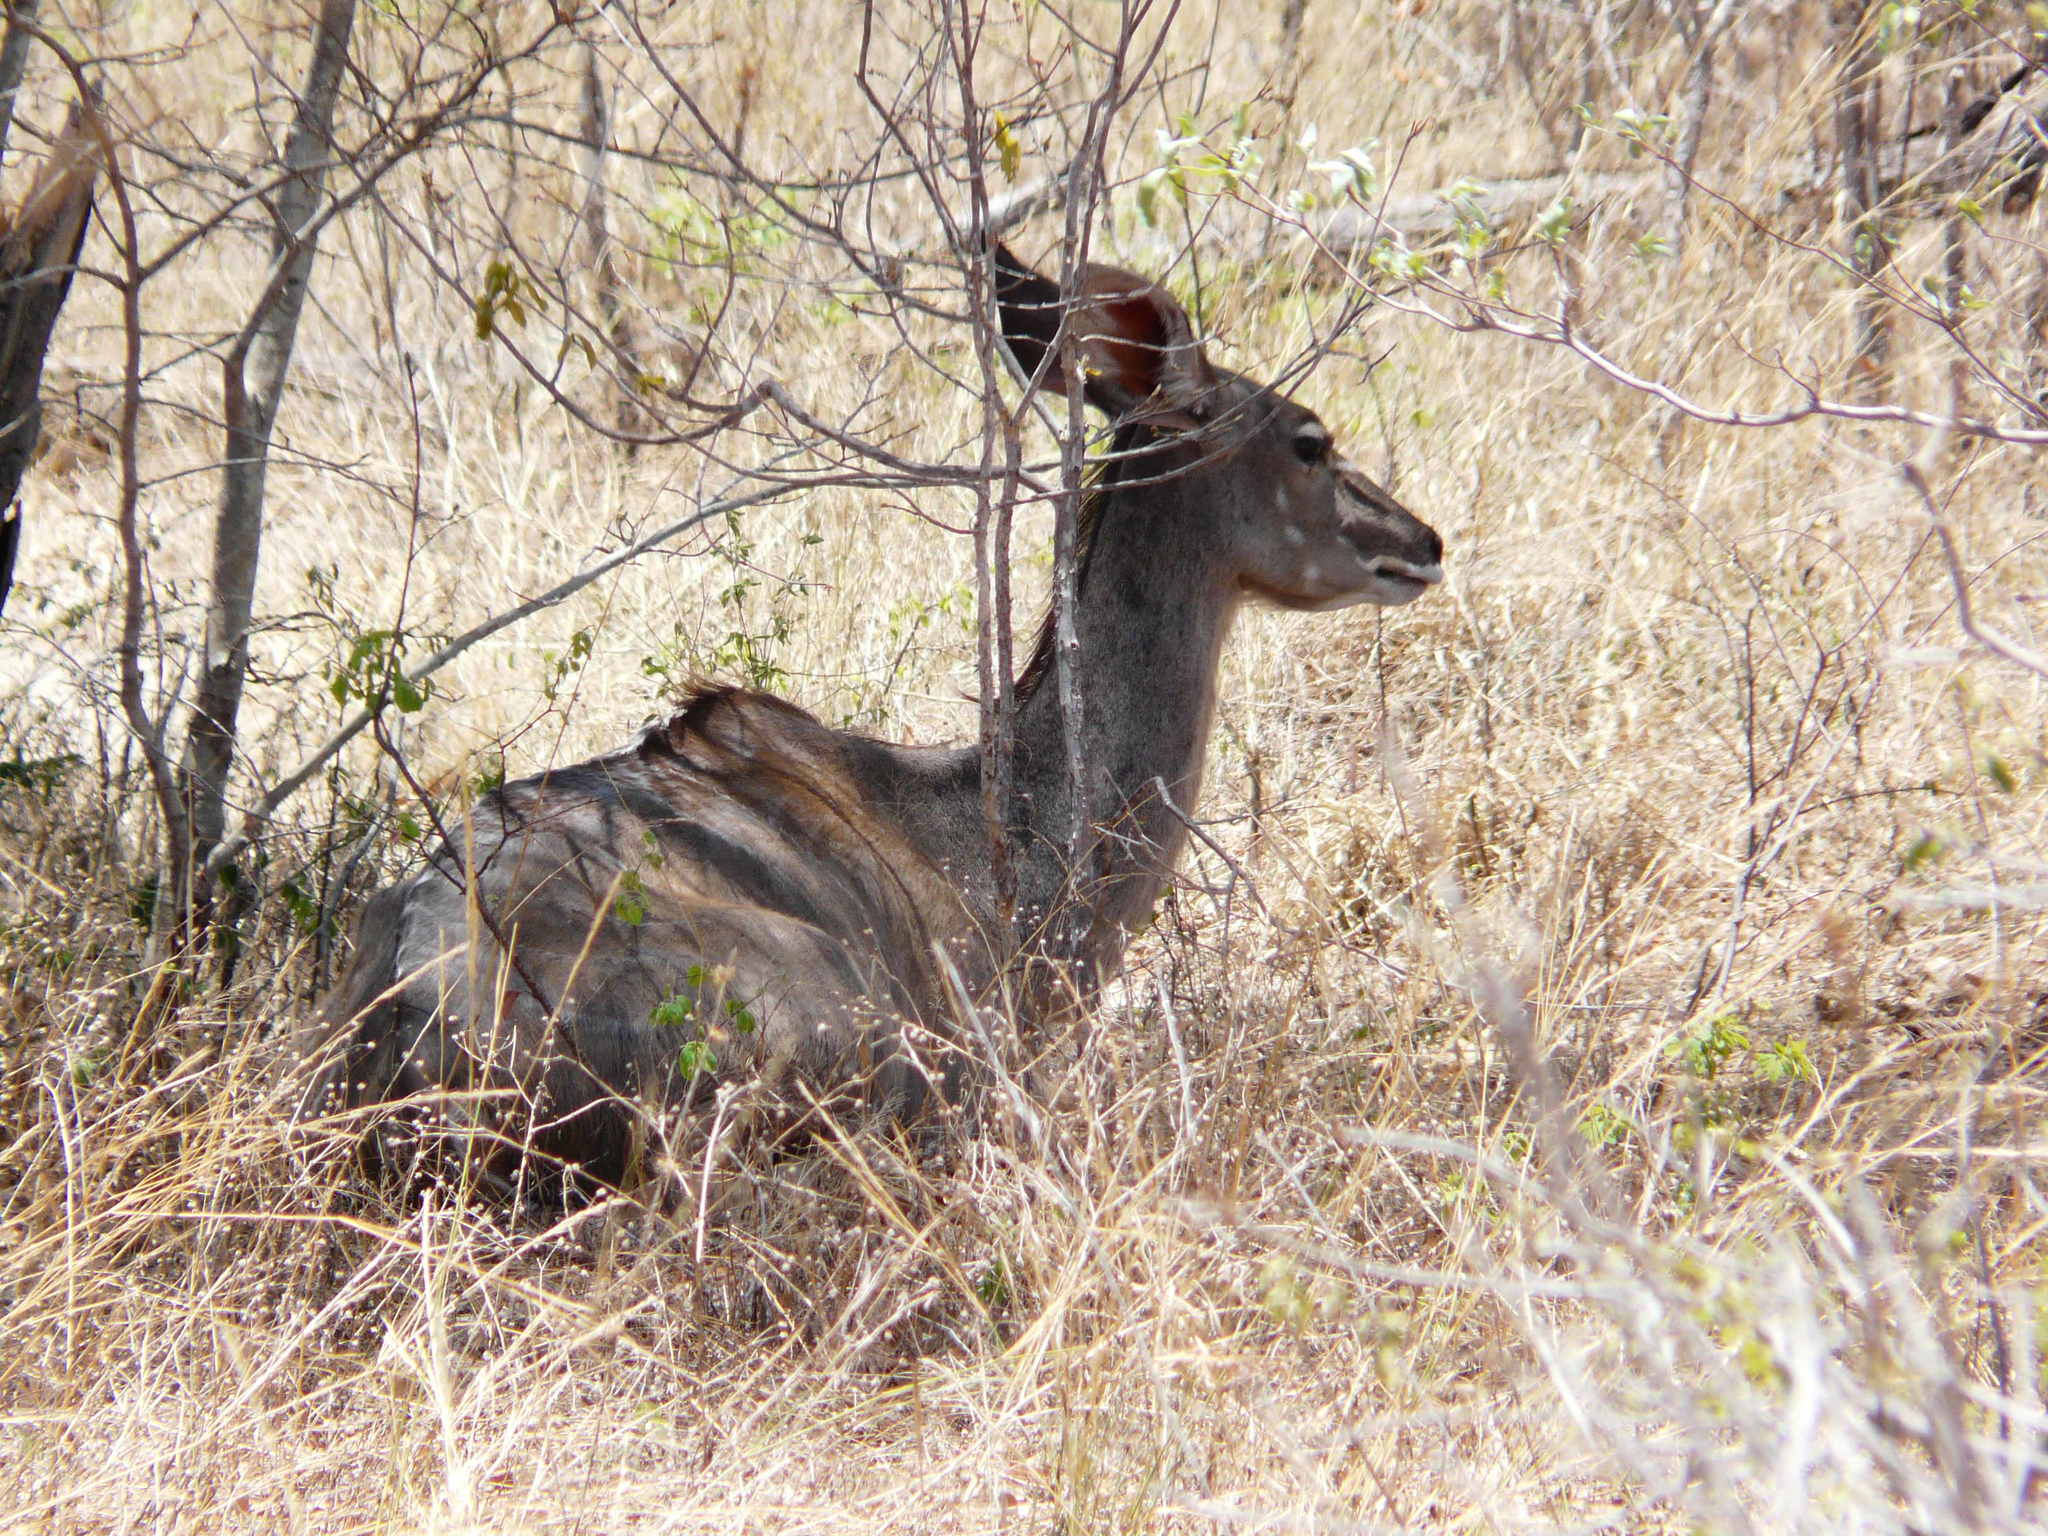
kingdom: Animalia
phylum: Chordata
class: Mammalia
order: Artiodactyla
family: Bovidae
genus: Tragelaphus
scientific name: Tragelaphus strepsiceros
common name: Greater kudu
